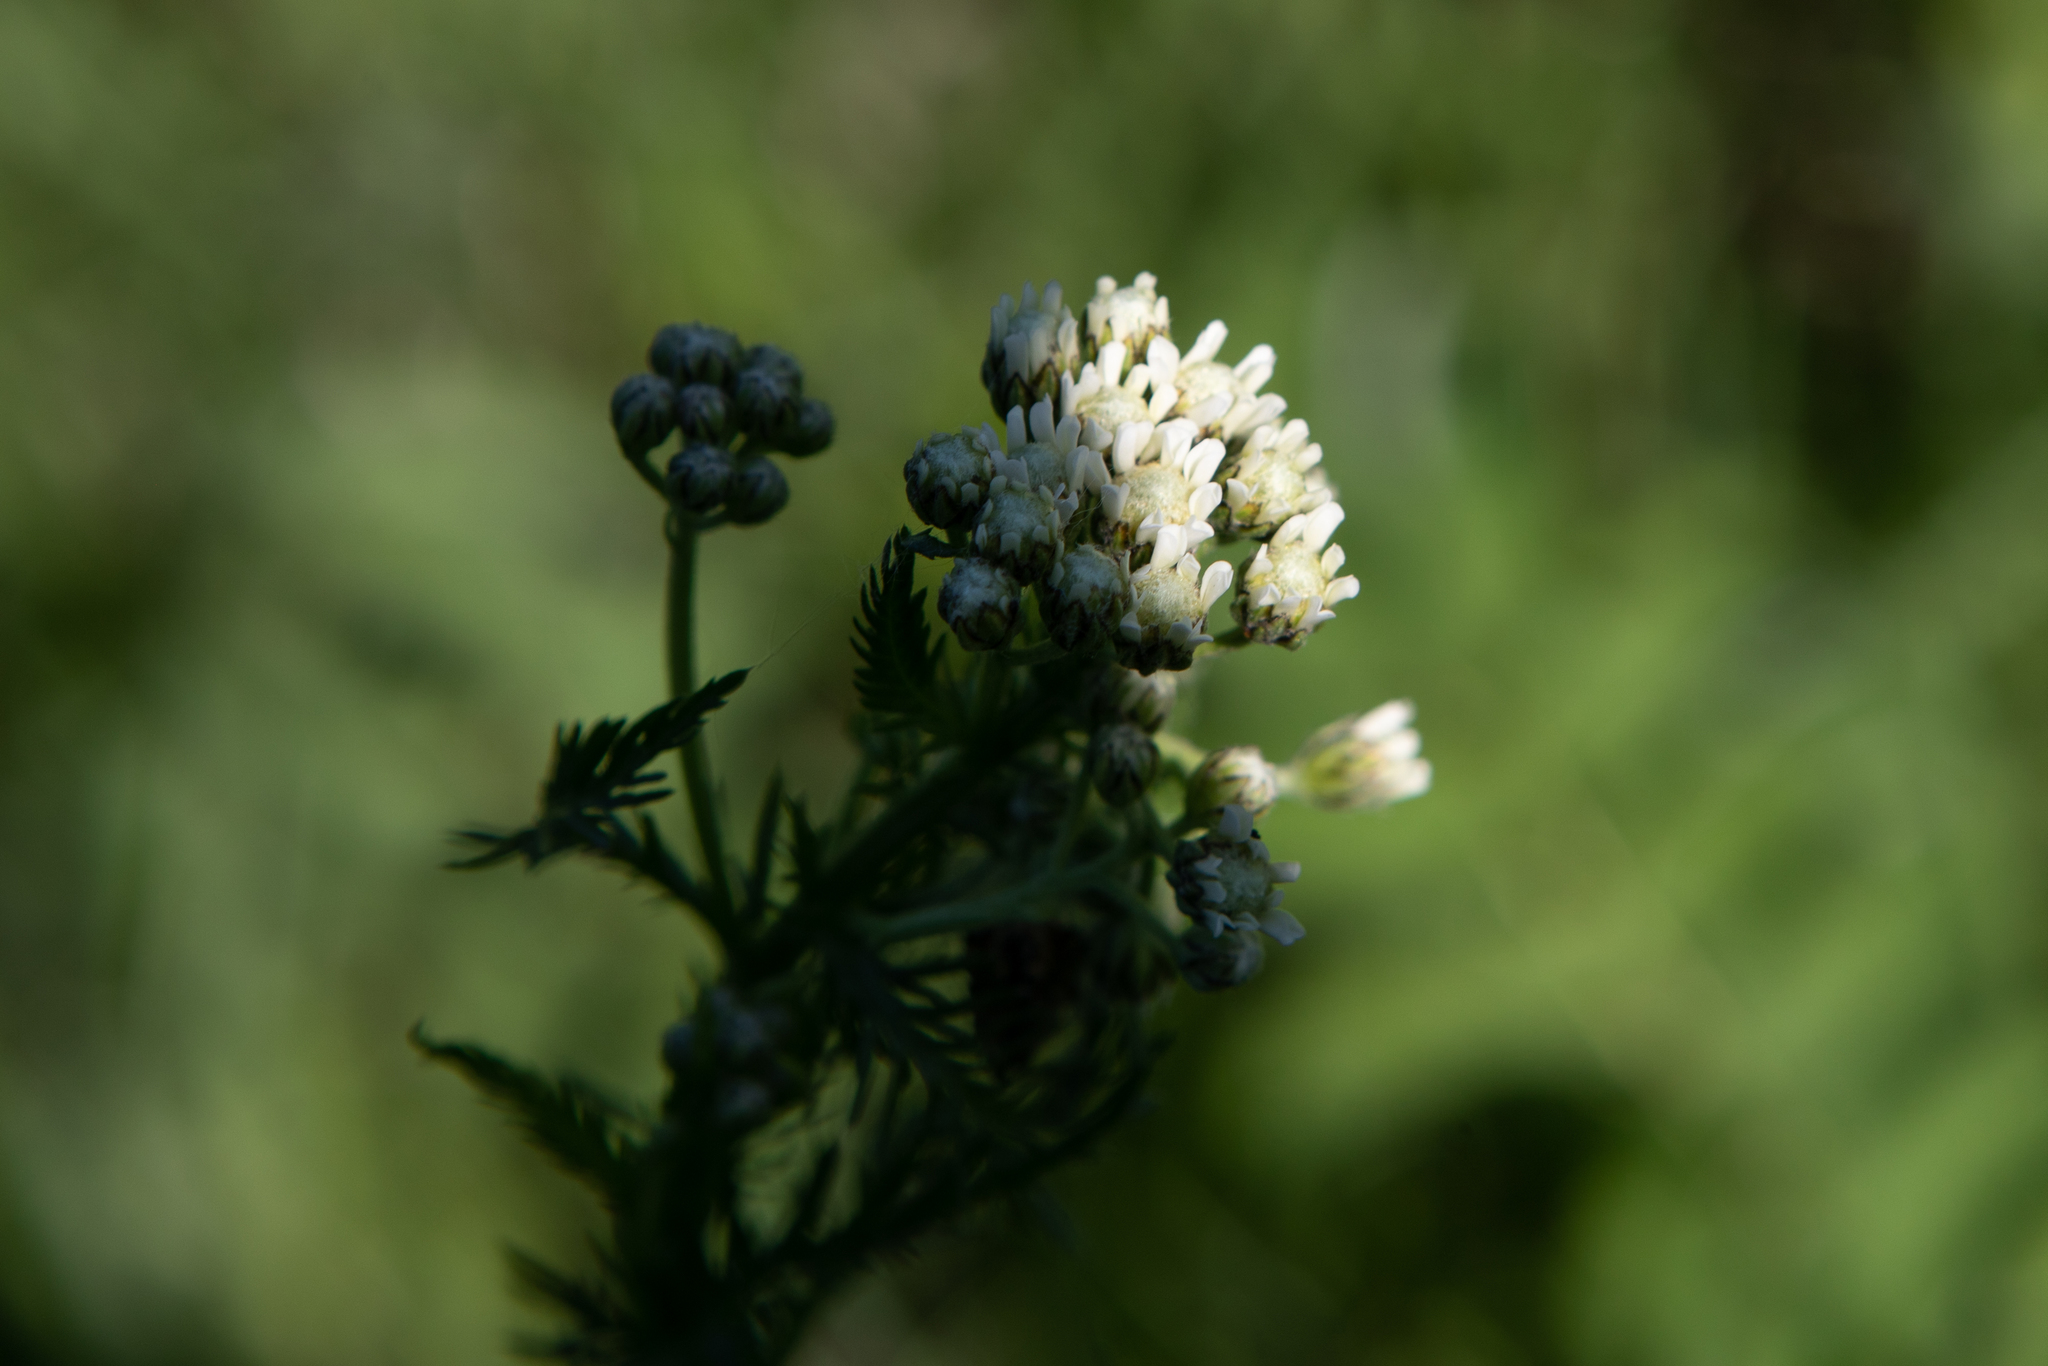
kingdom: Plantae
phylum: Tracheophyta
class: Magnoliopsida
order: Asterales
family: Asteraceae
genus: Achillea
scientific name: Achillea impatiens
